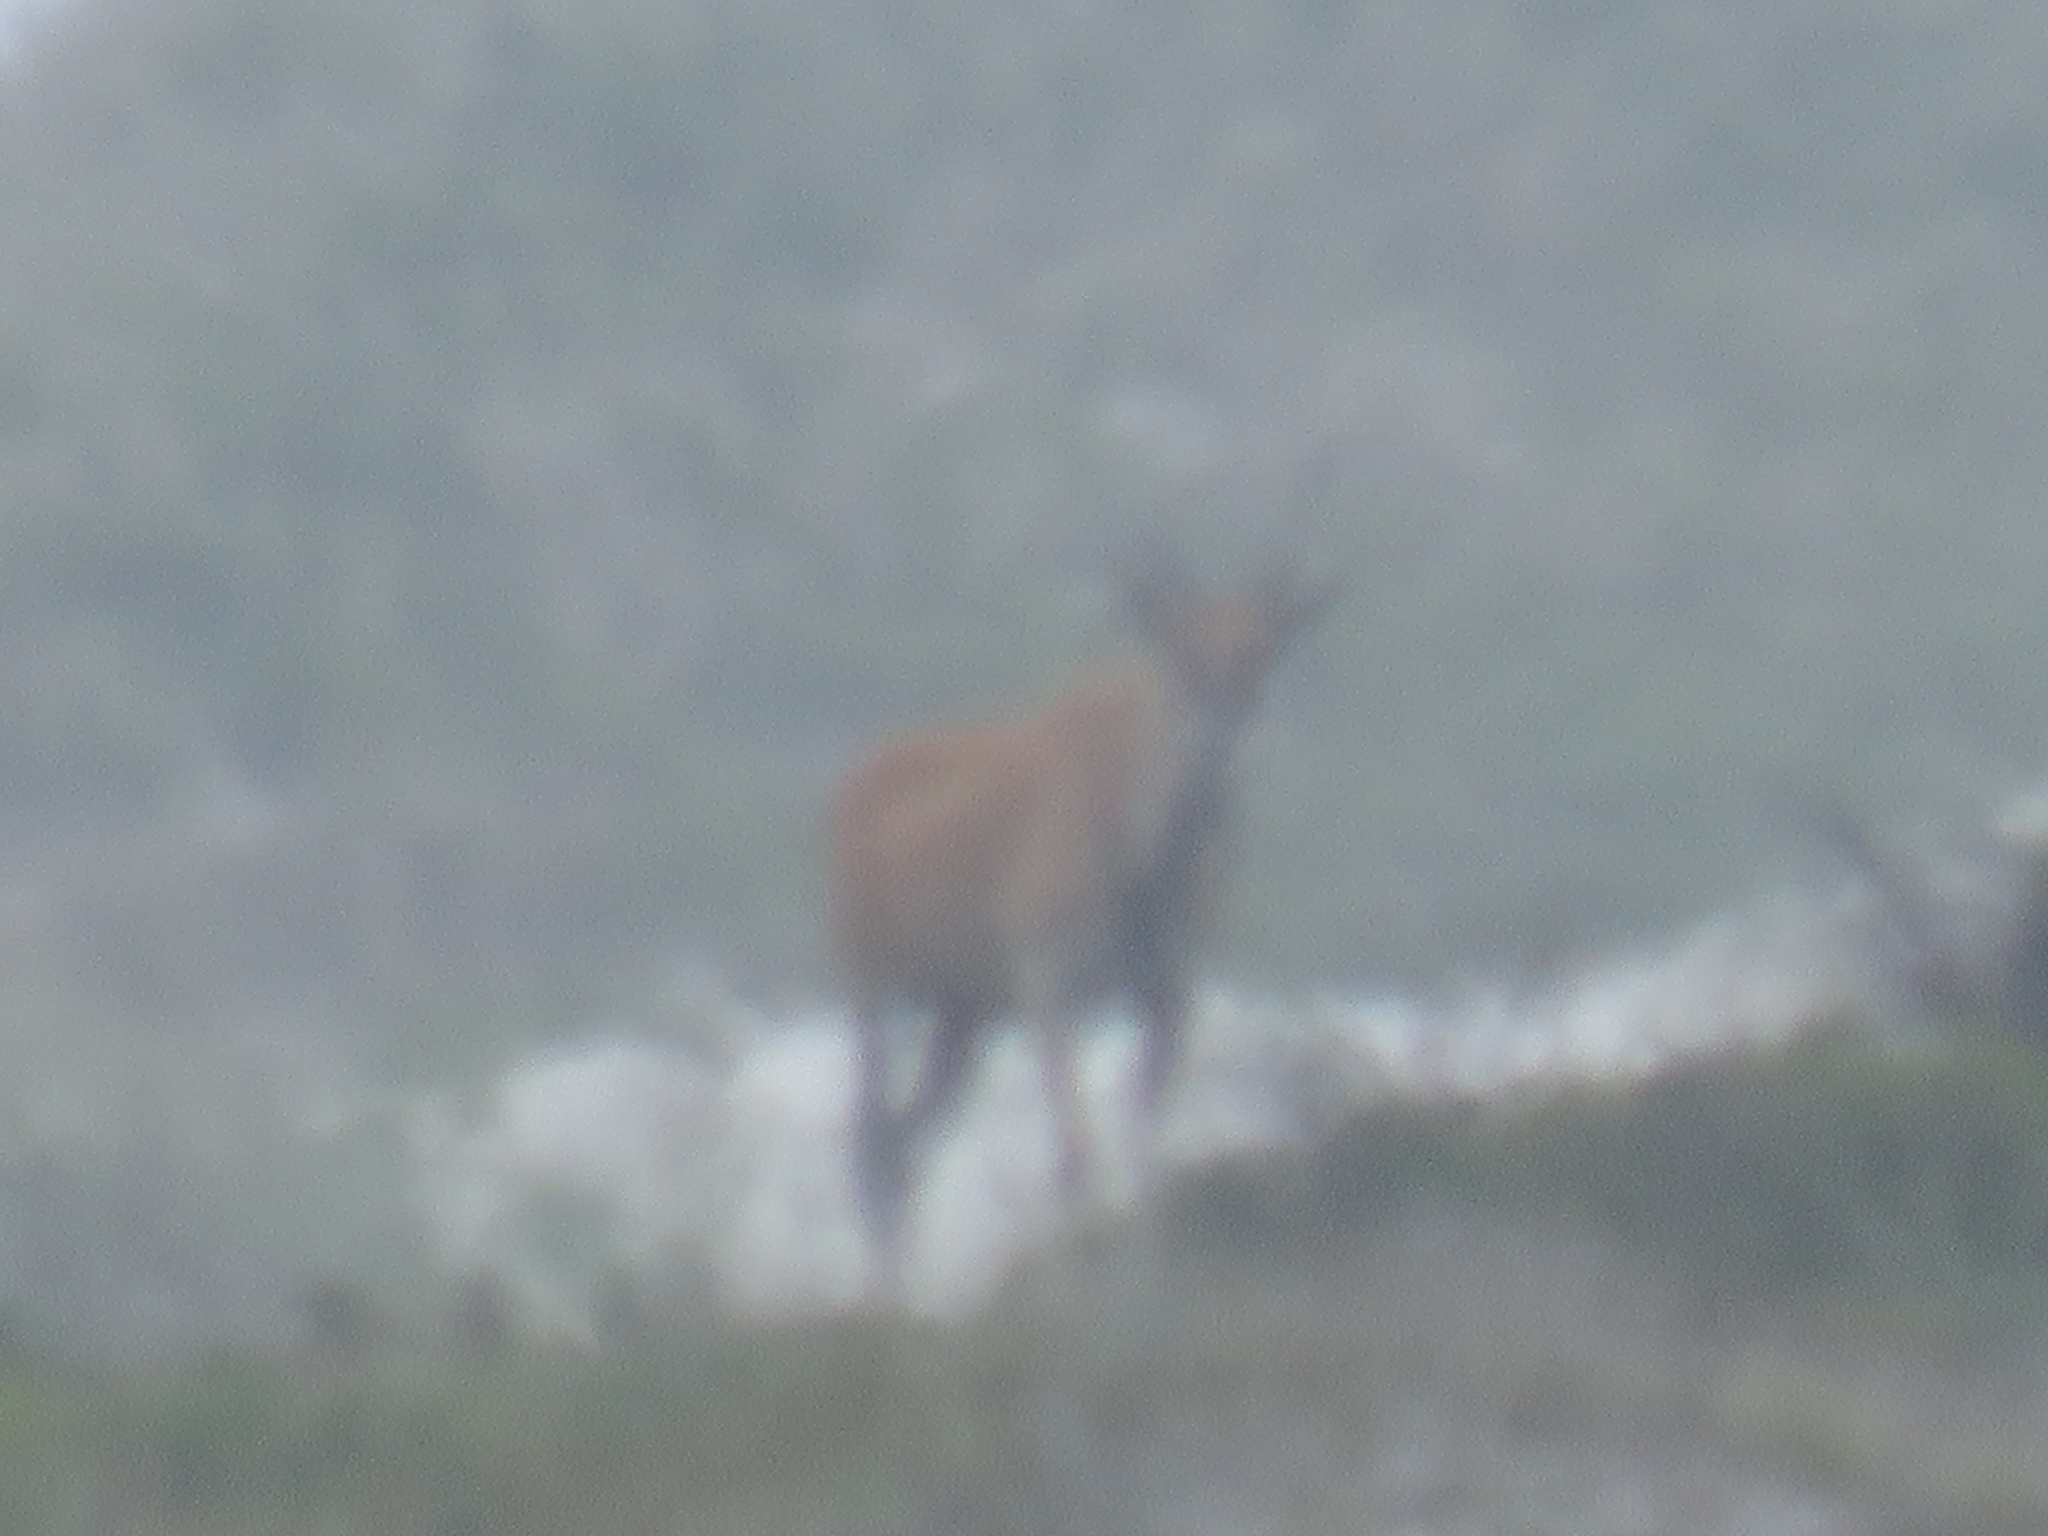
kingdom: Animalia
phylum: Chordata
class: Mammalia
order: Artiodactyla
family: Bovidae
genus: Taurotragus
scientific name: Taurotragus oryx
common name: Common eland
